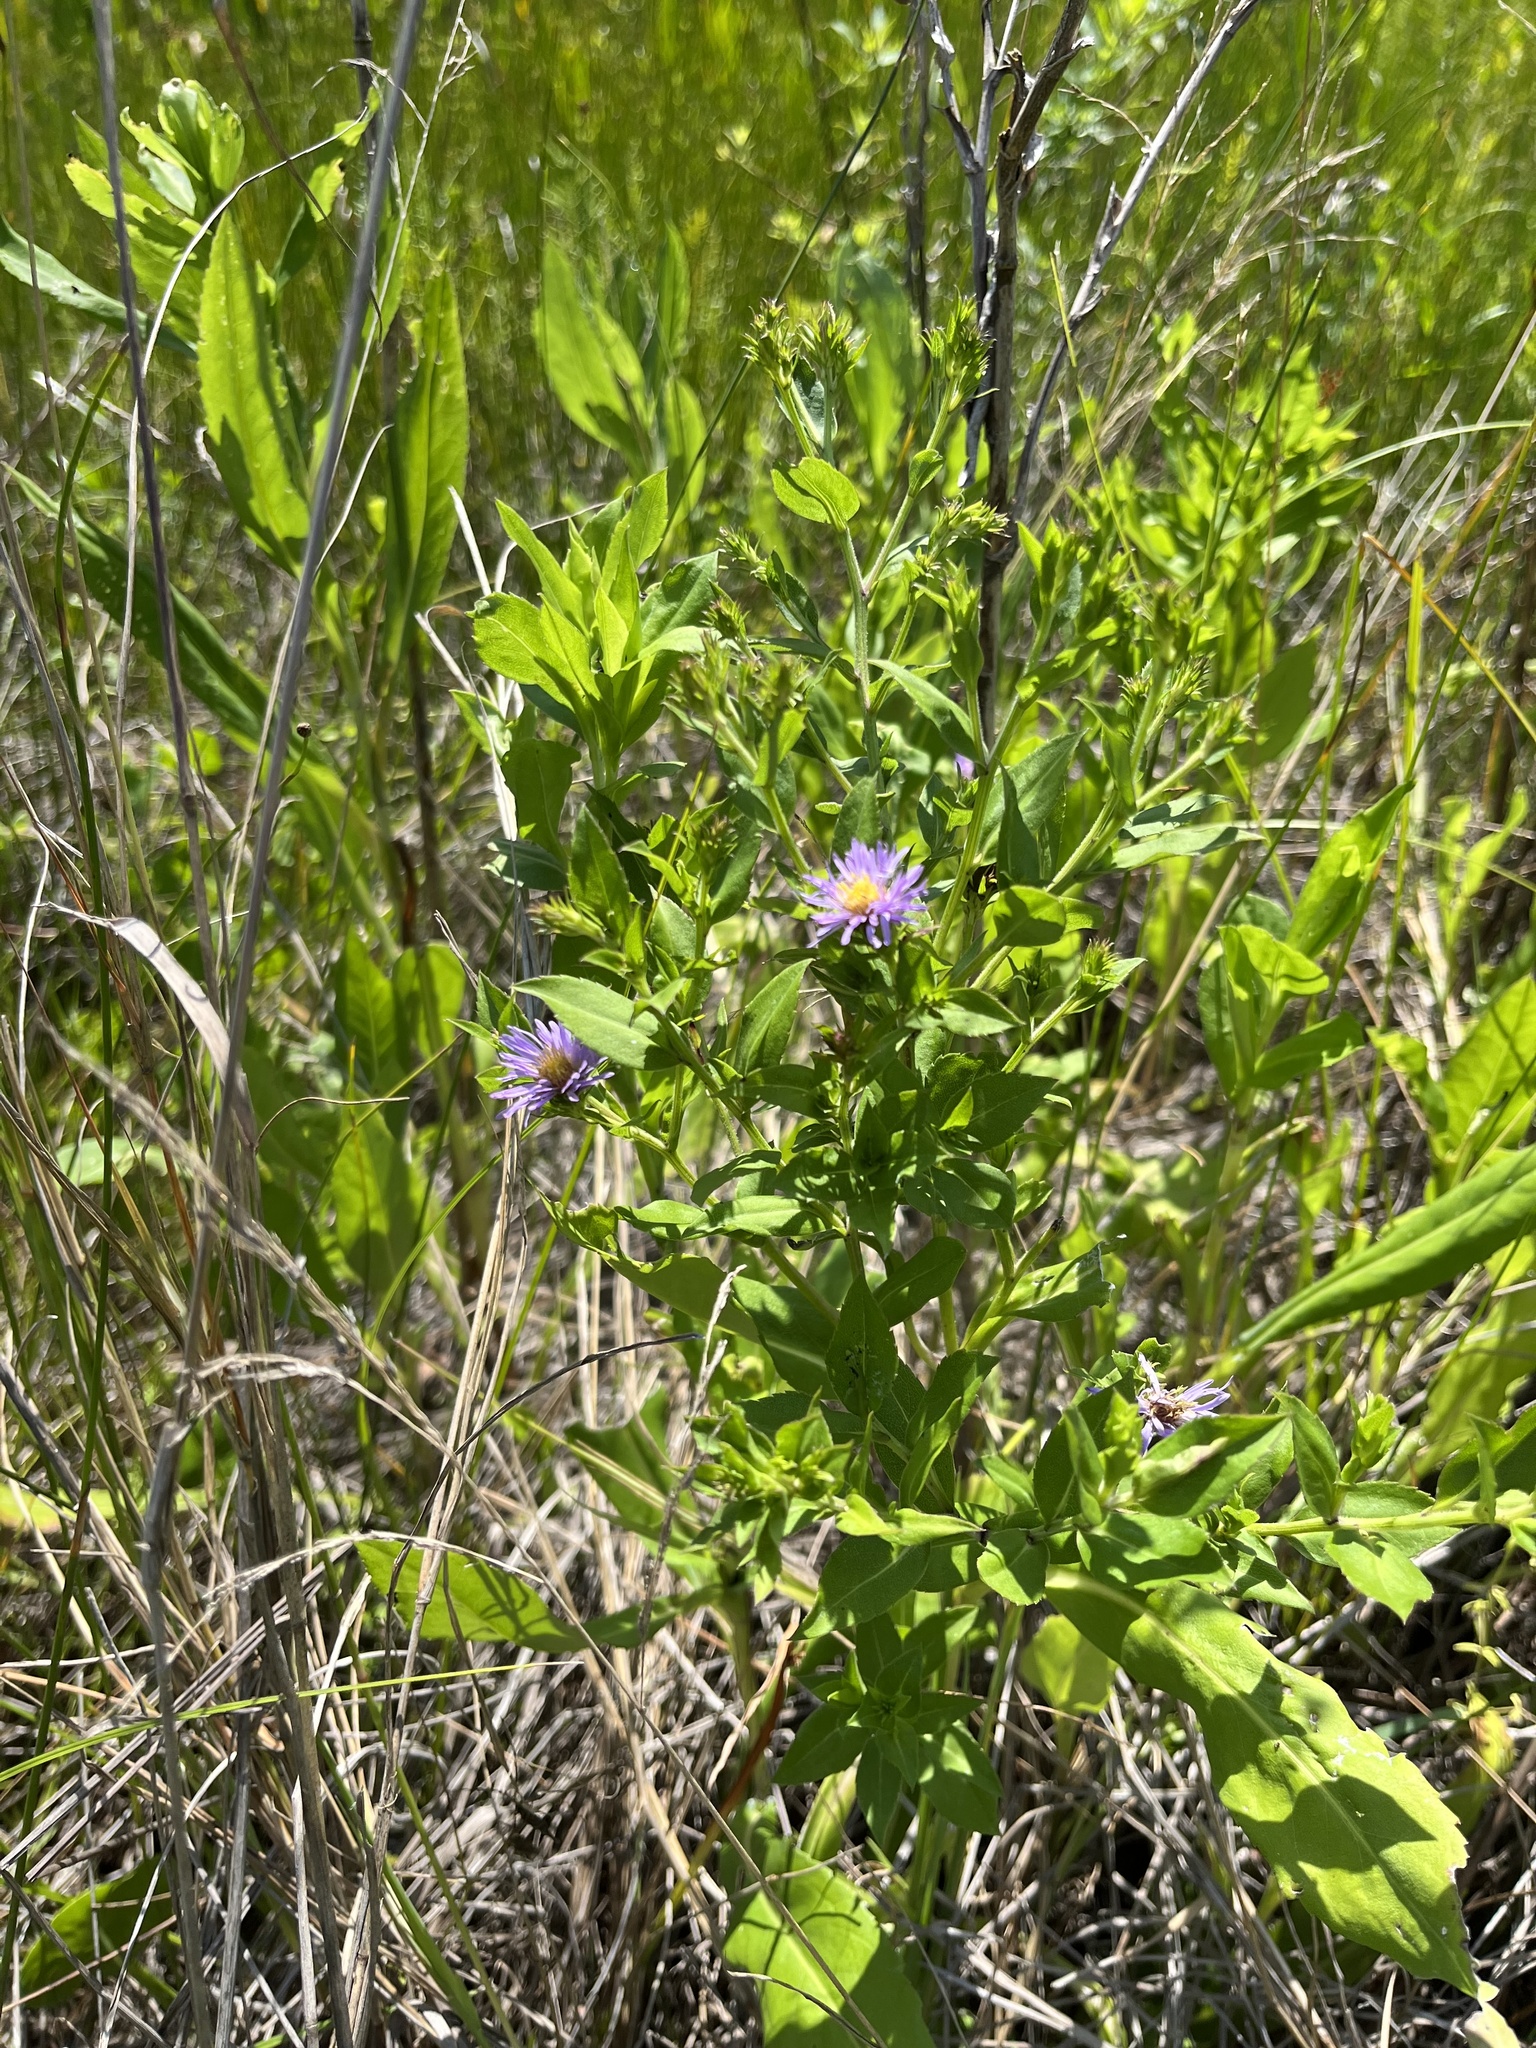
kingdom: Plantae
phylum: Tracheophyta
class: Magnoliopsida
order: Asterales
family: Asteraceae
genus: Symphyotrichum
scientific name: Symphyotrichum elliottii
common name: Southern swamp aster
